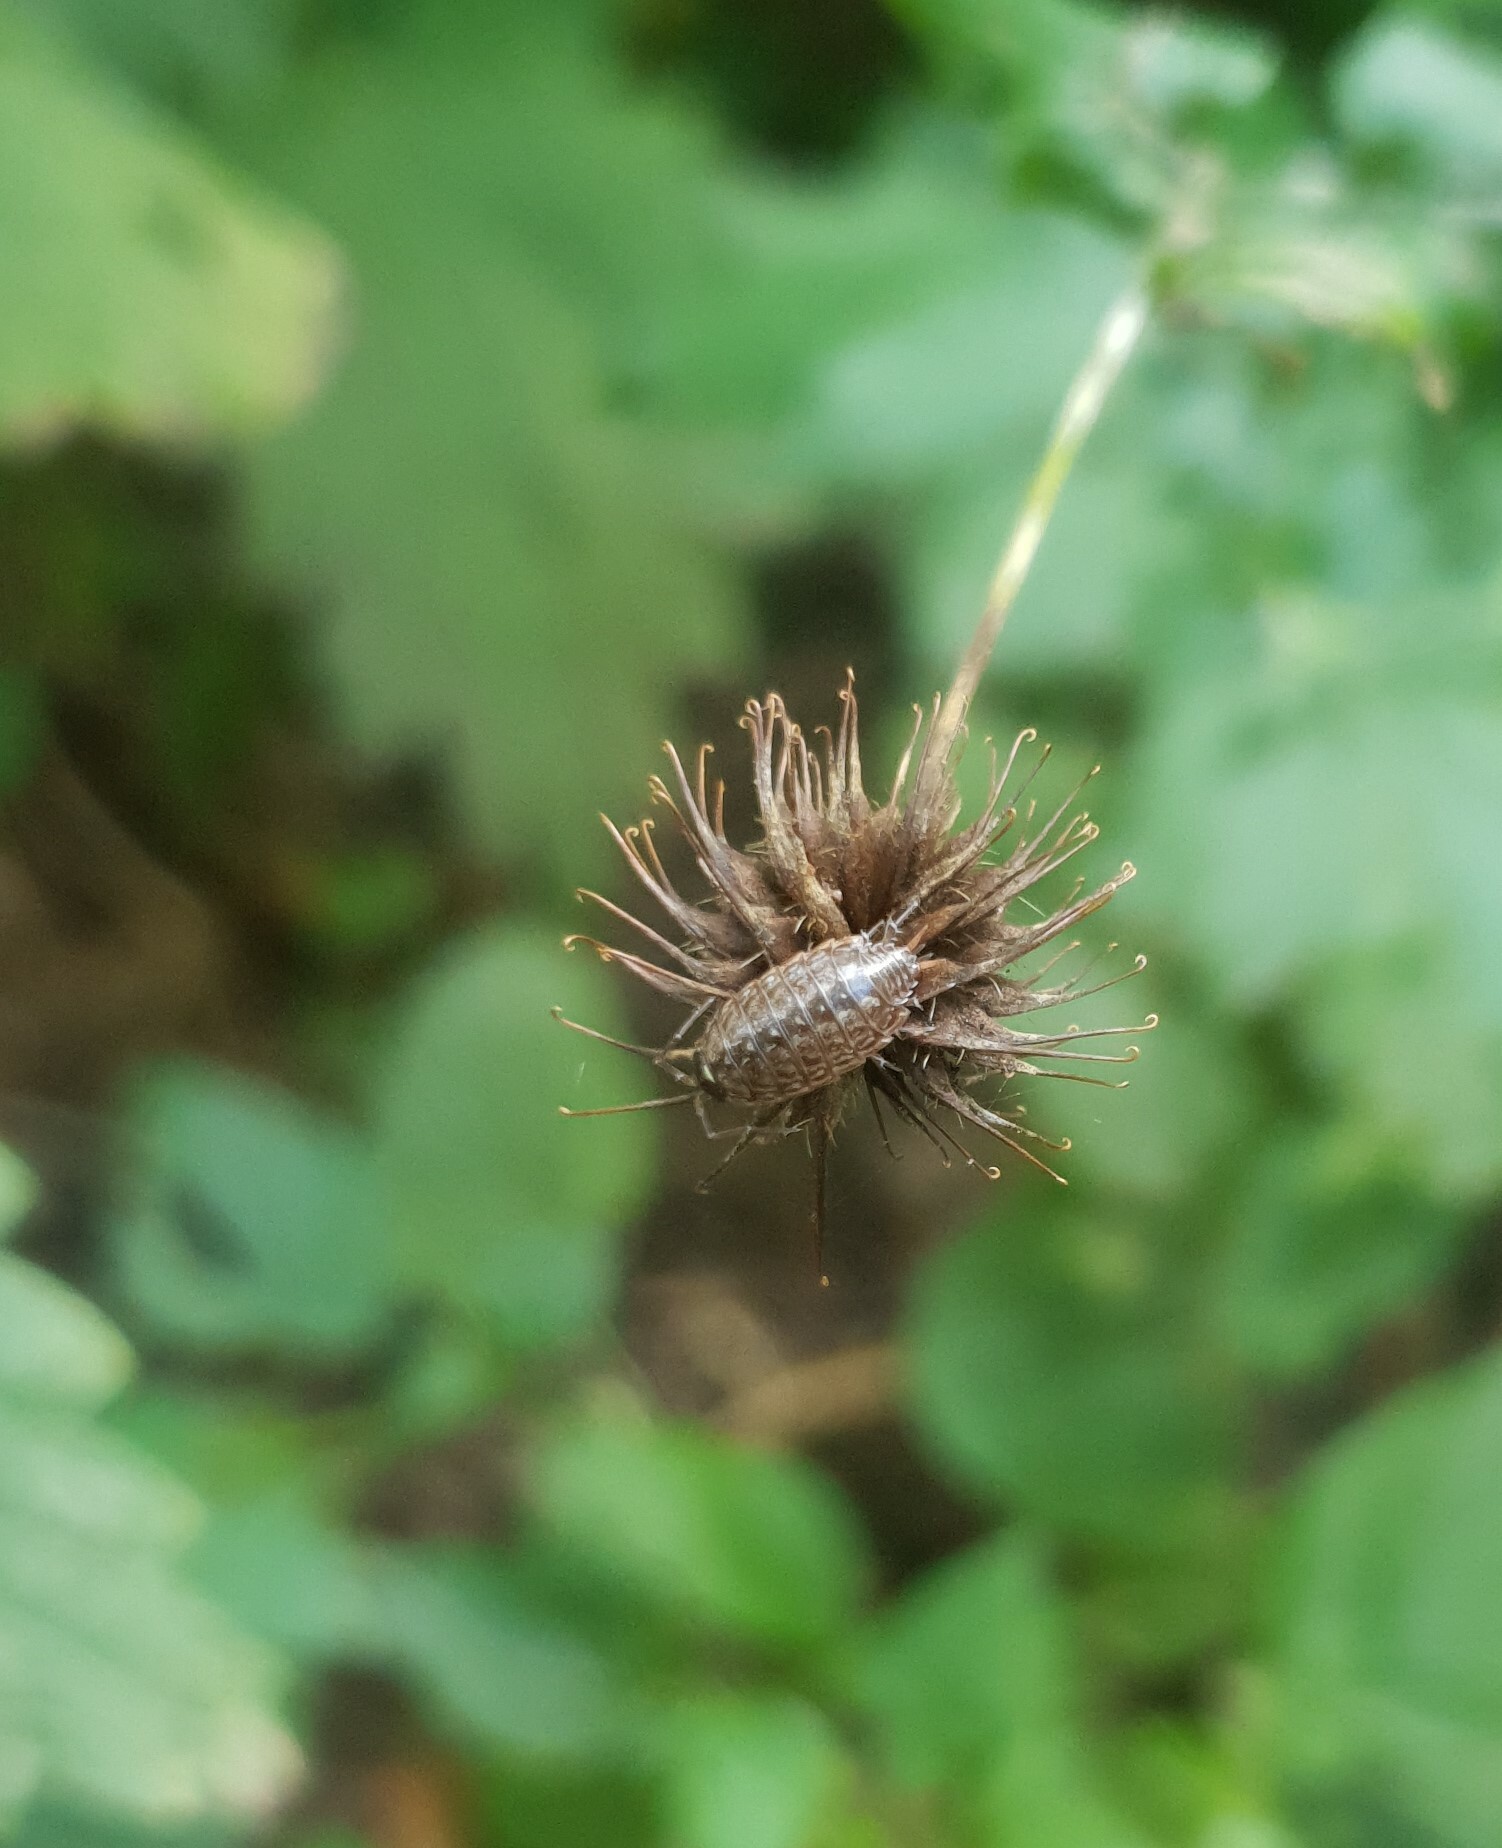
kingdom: Animalia
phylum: Arthropoda
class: Malacostraca
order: Isopoda
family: Philosciidae
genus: Philoscia
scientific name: Philoscia muscorum
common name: Common striped woodlouse
